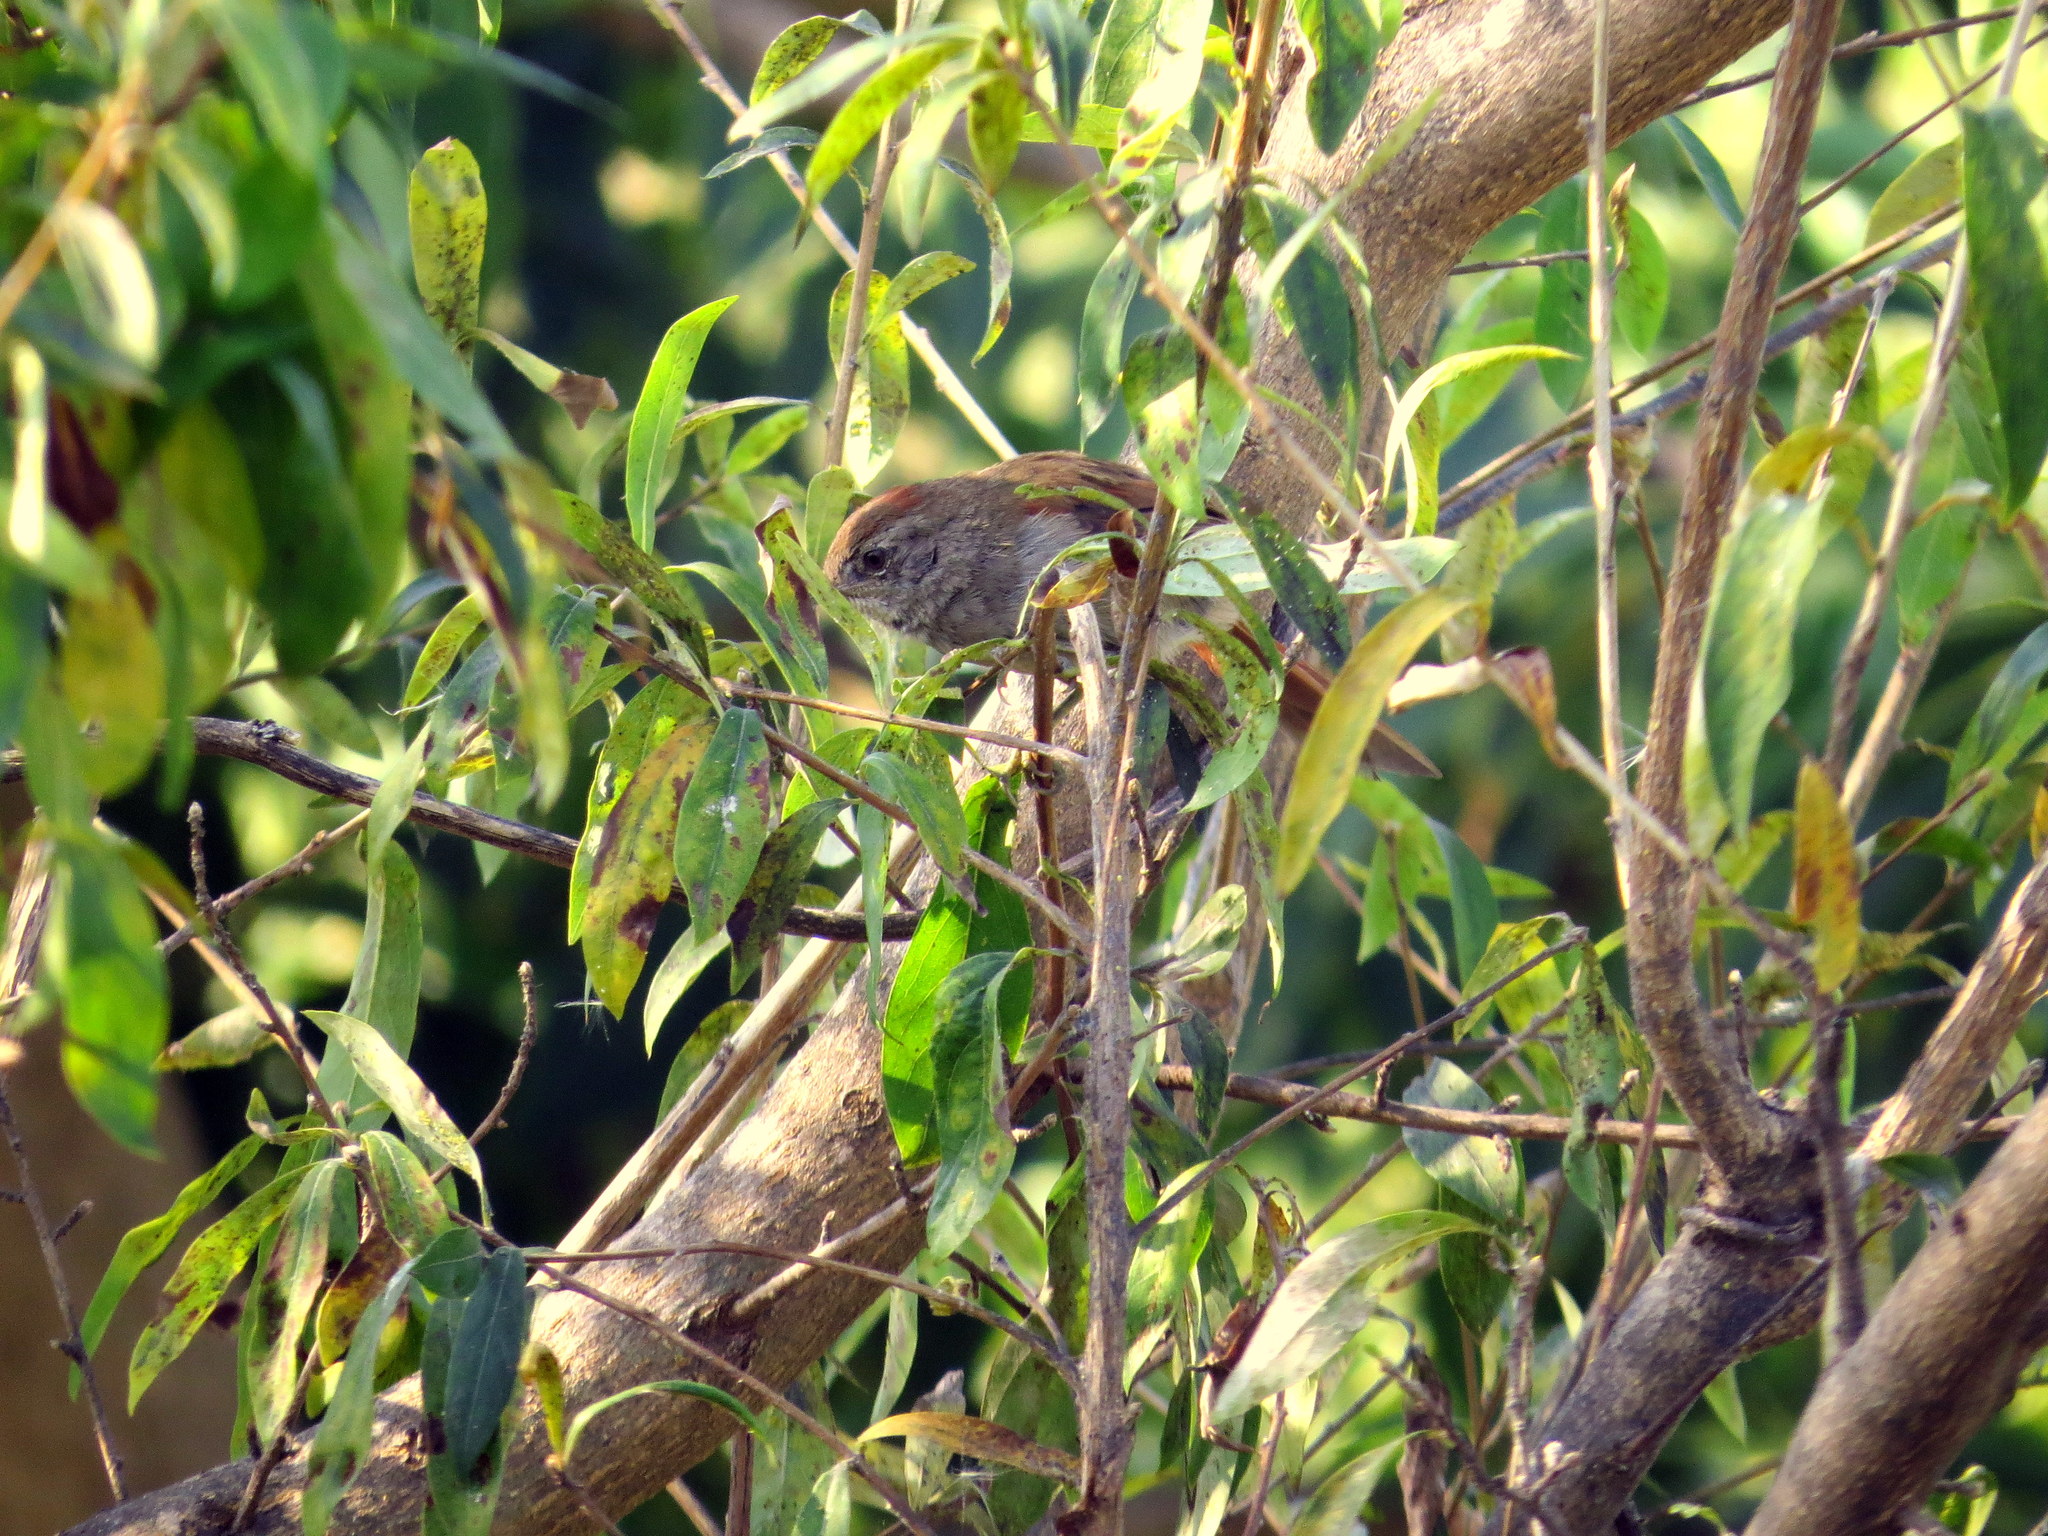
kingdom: Animalia
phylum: Chordata
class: Aves
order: Passeriformes
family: Furnariidae
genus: Synallaxis
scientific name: Synallaxis frontalis
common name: Sooty-fronted spinetail
